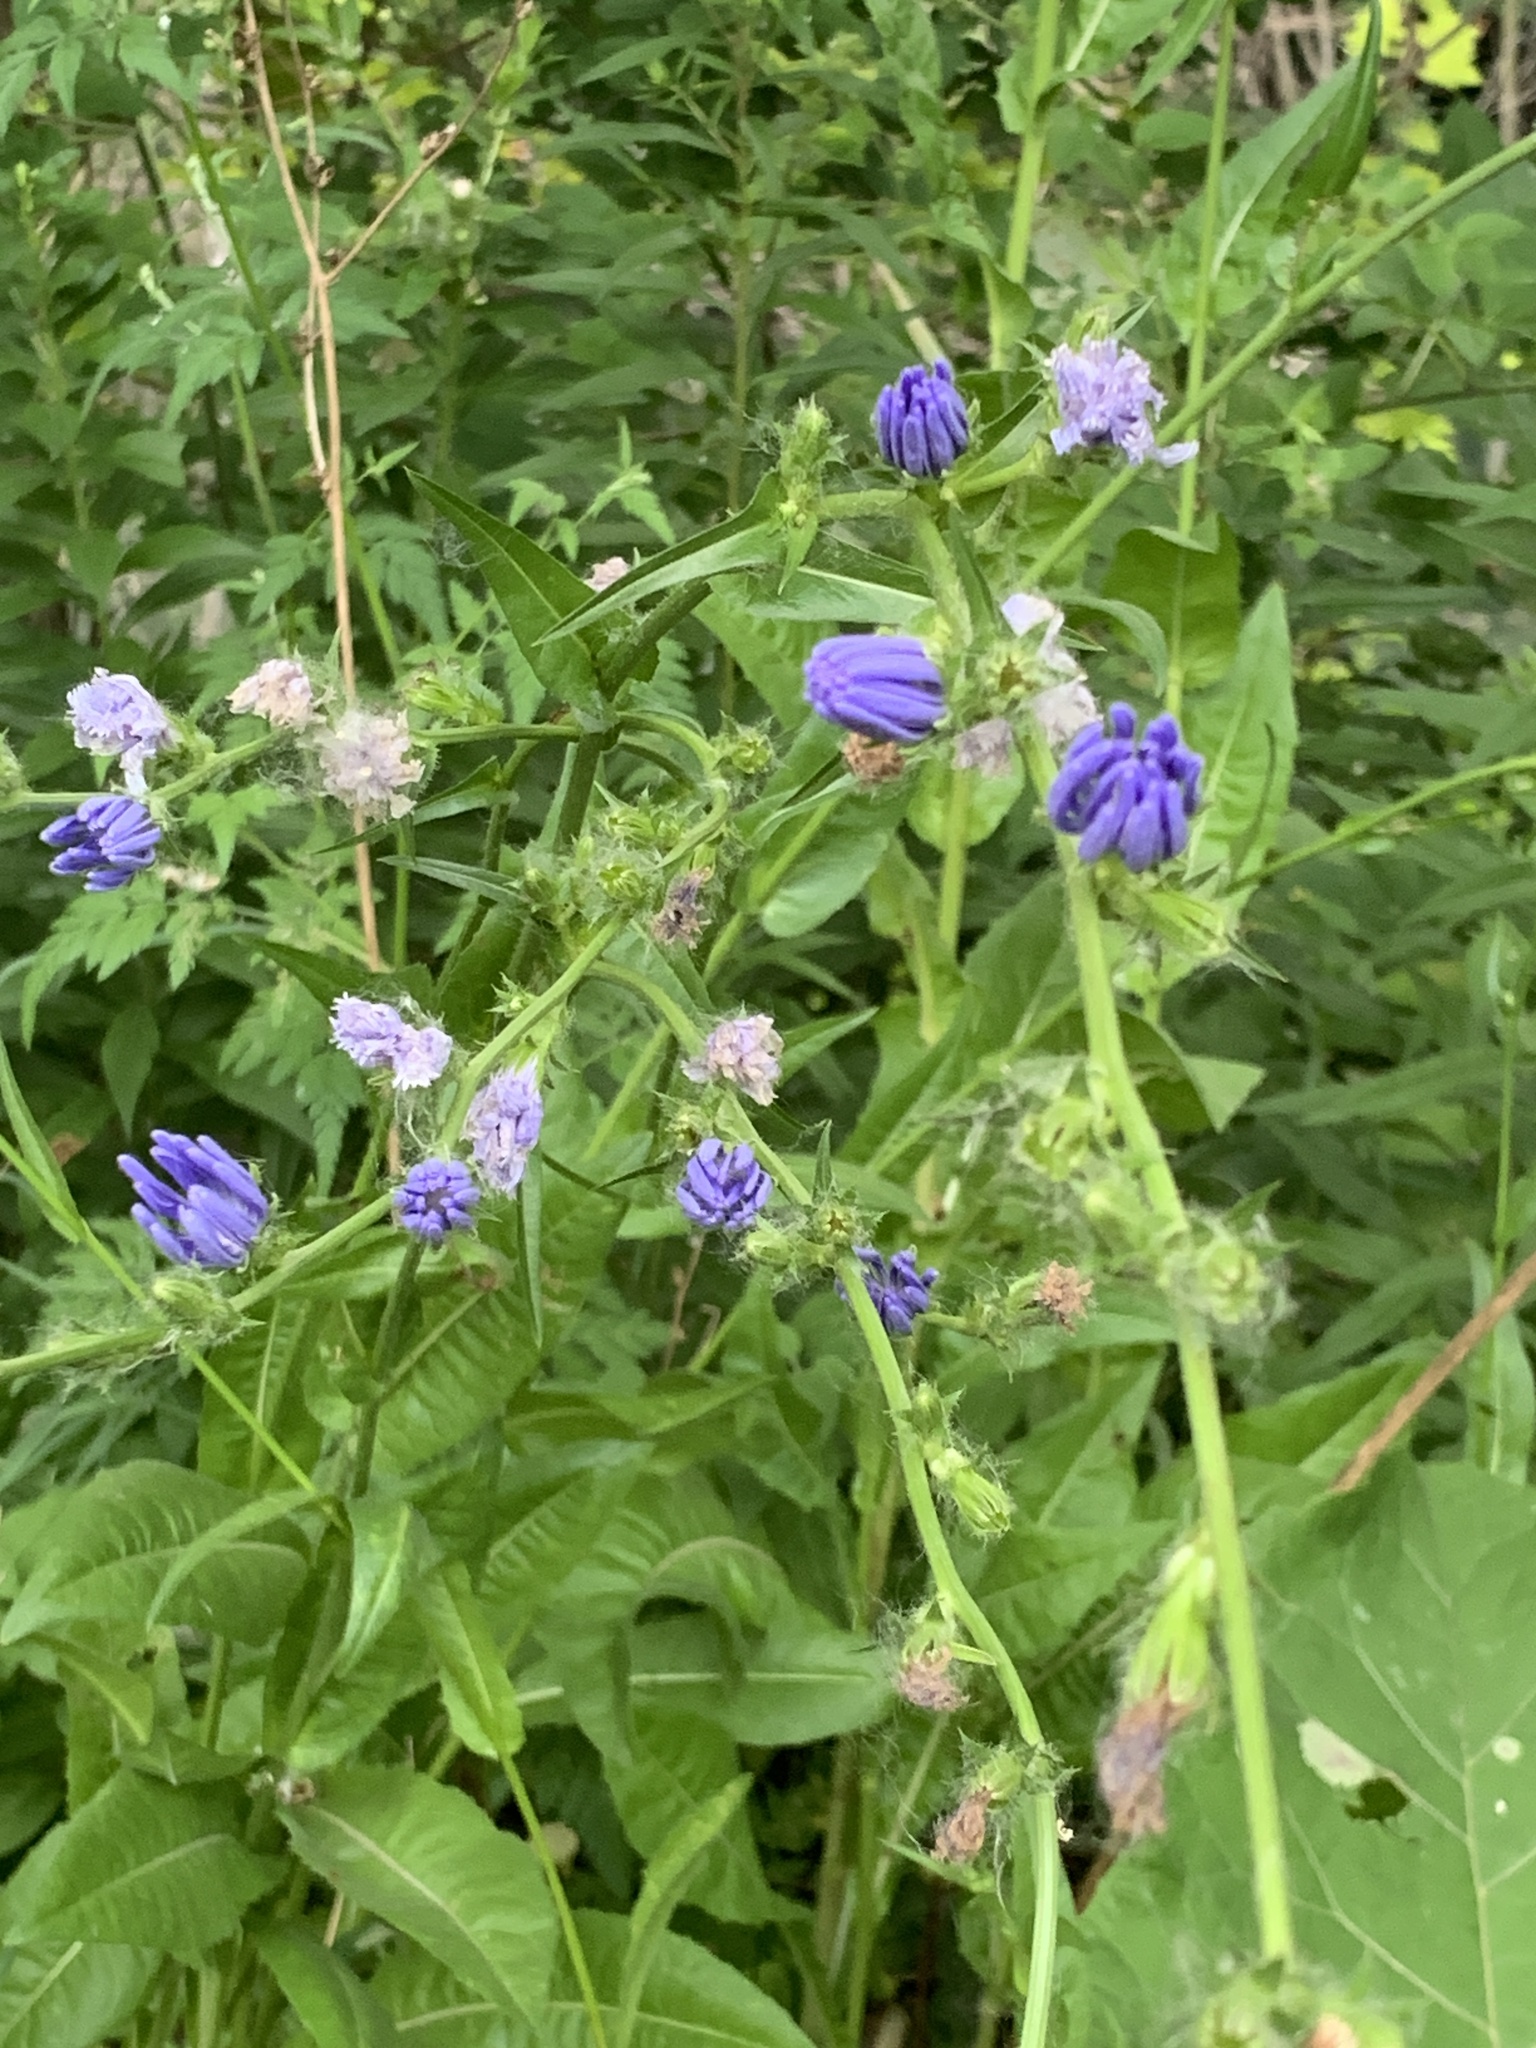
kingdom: Plantae
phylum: Tracheophyta
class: Magnoliopsida
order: Asterales
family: Asteraceae
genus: Cichorium
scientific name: Cichorium intybus
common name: Chicory
